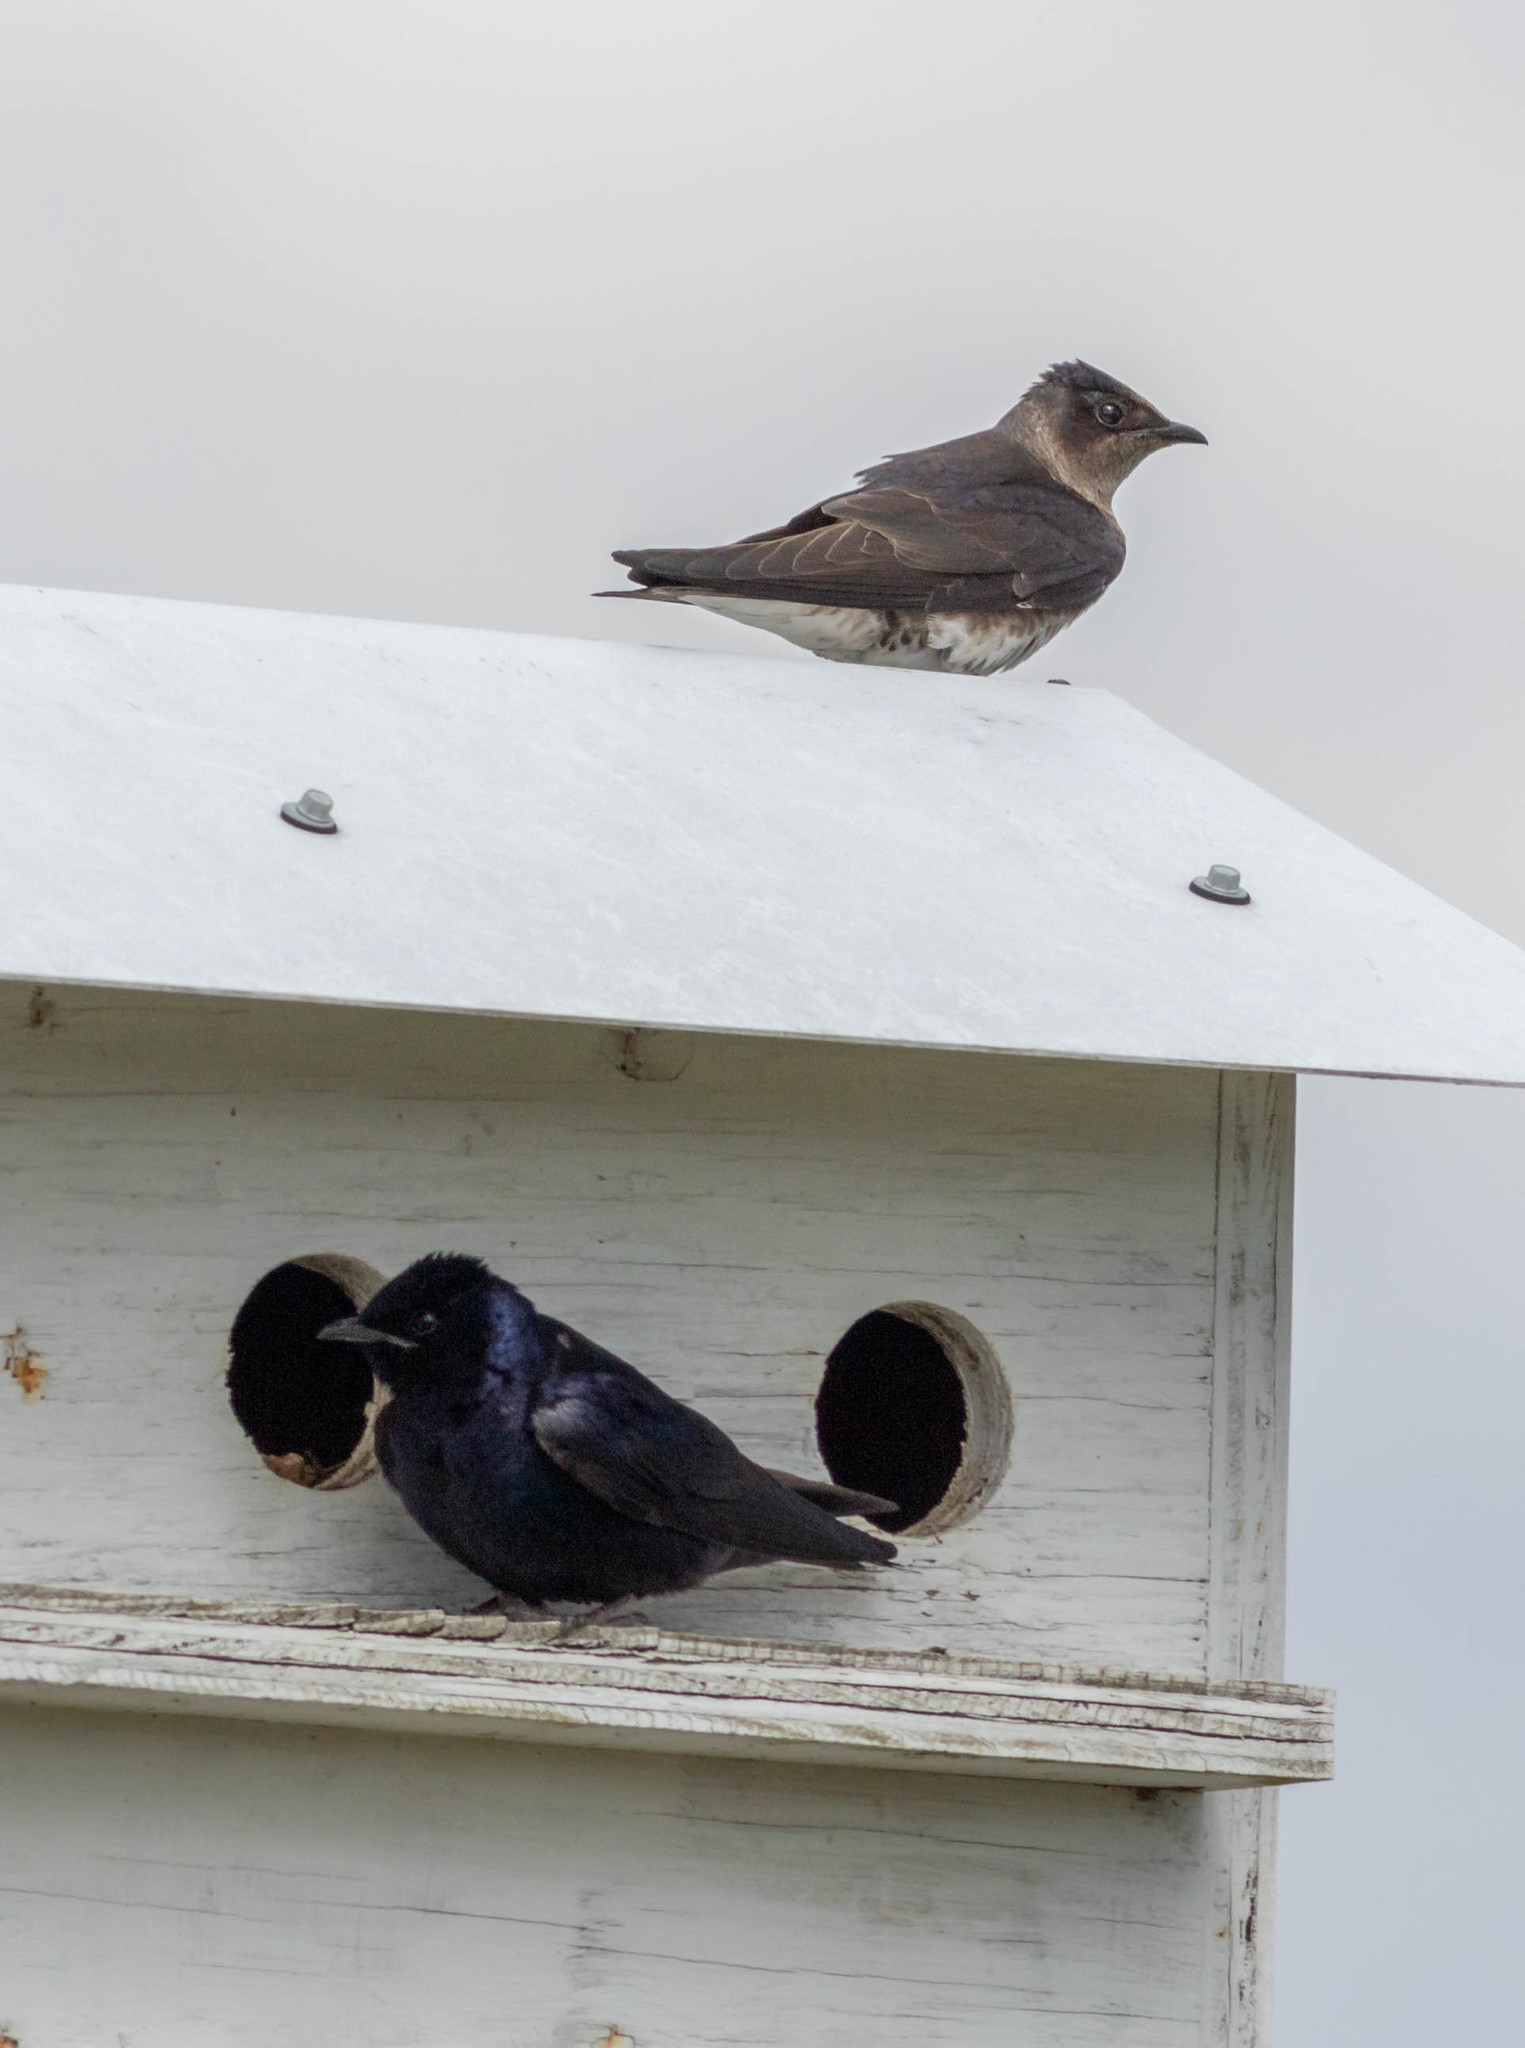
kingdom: Animalia
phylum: Chordata
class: Aves
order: Passeriformes
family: Hirundinidae
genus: Progne
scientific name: Progne subis
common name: Purple martin
